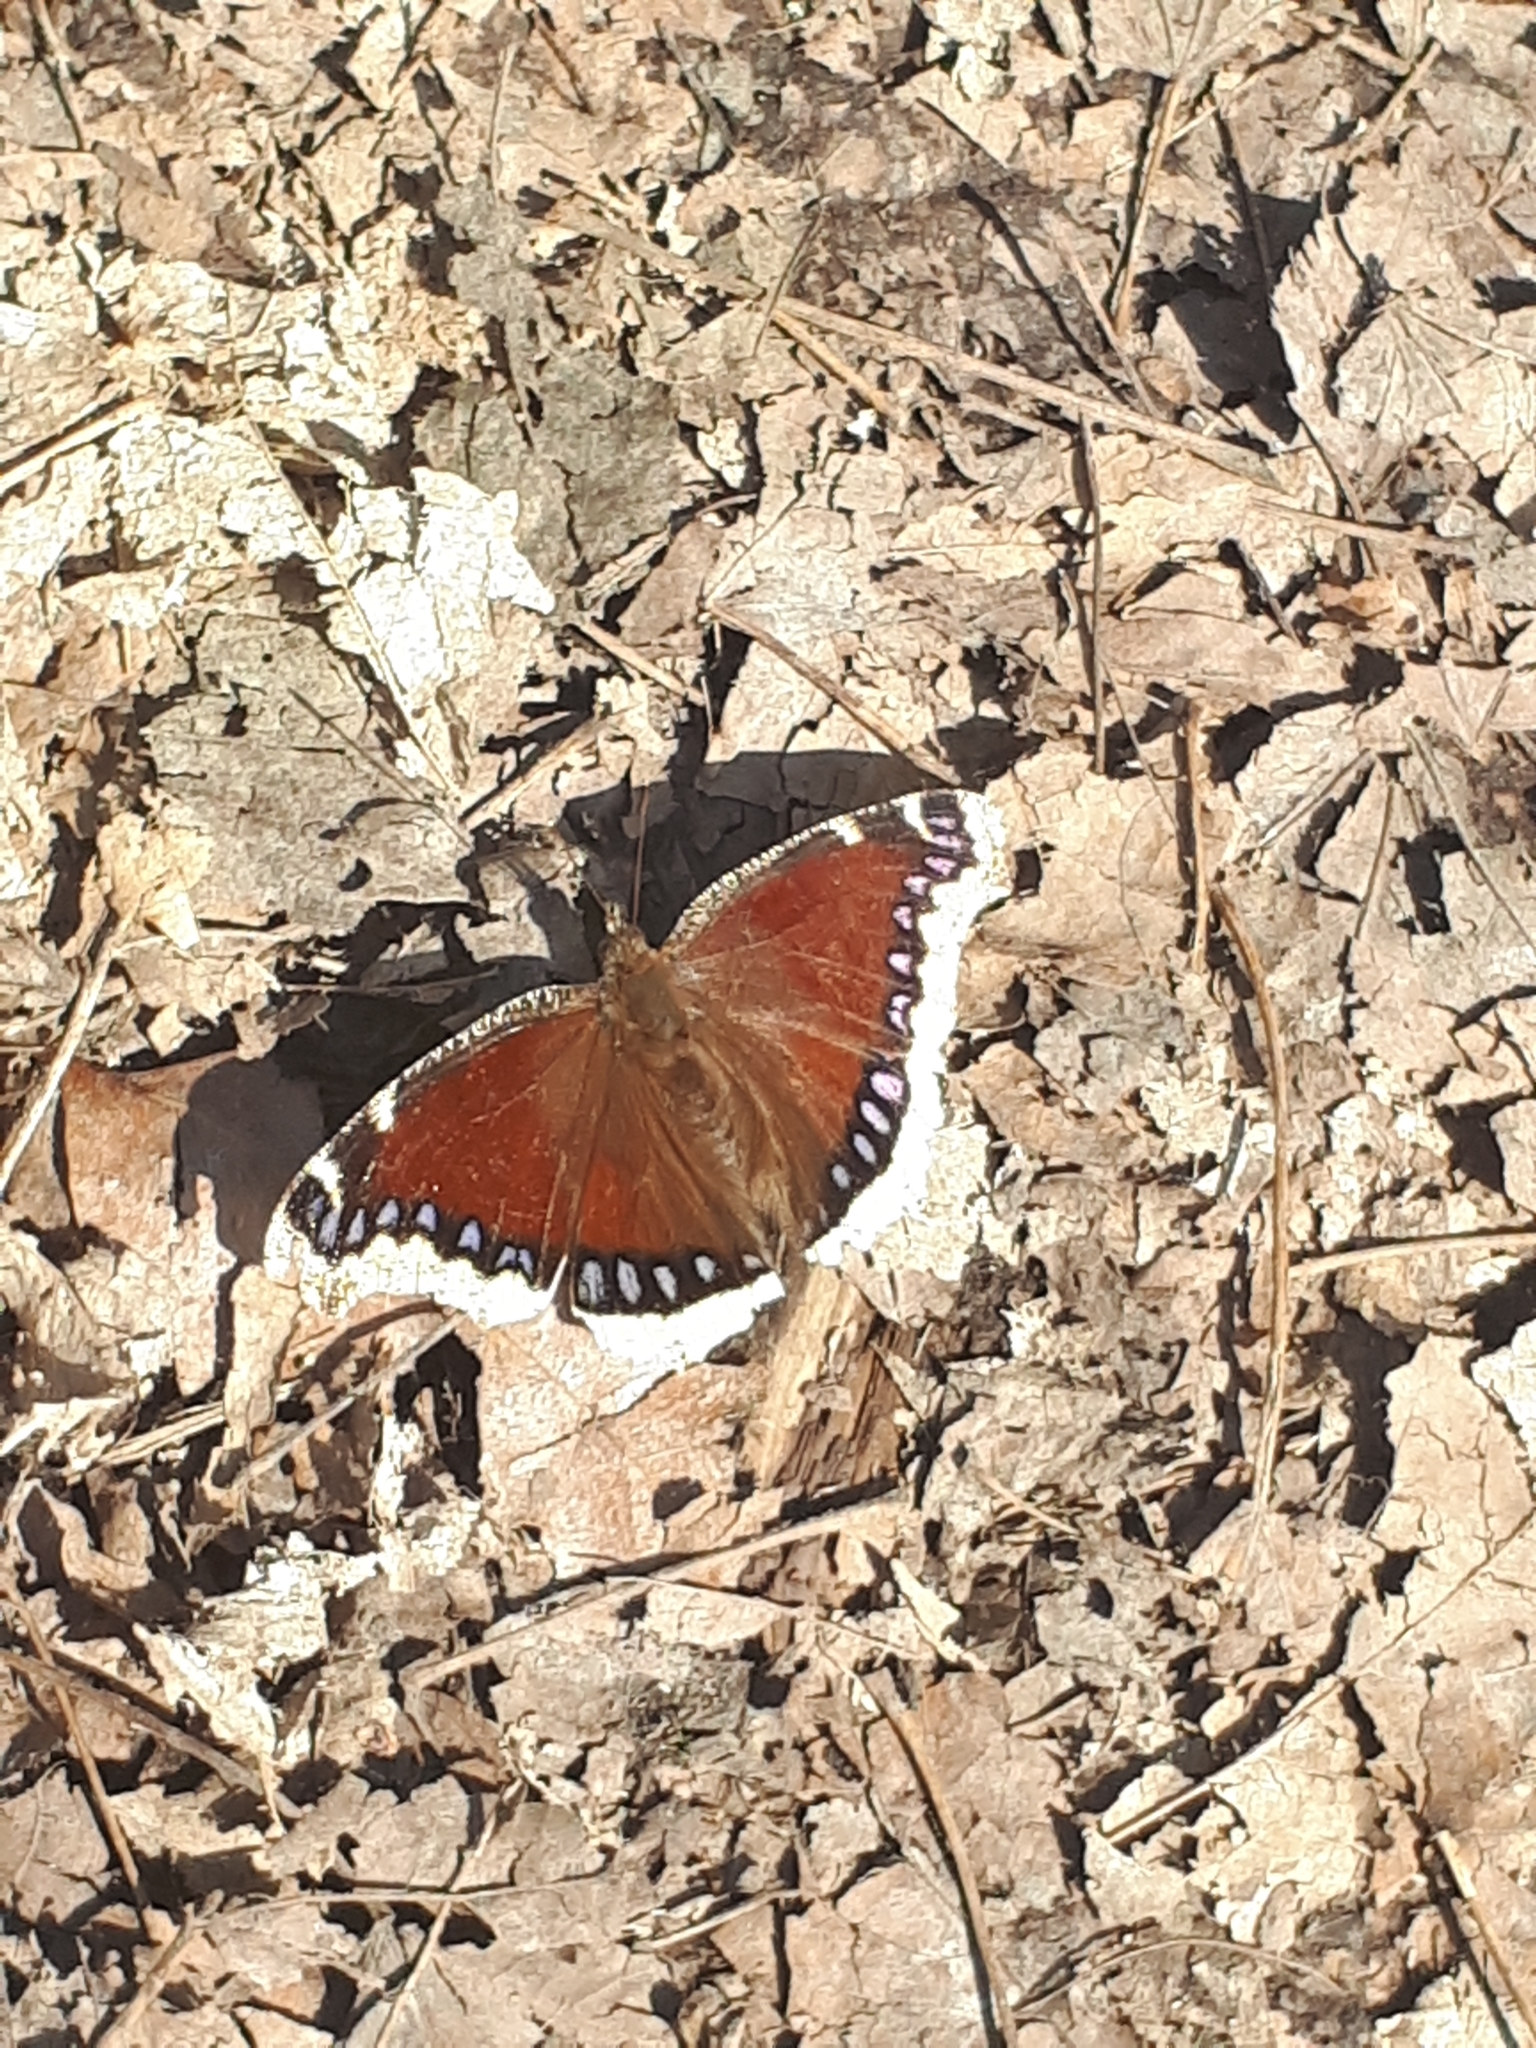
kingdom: Animalia
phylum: Arthropoda
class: Insecta
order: Lepidoptera
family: Nymphalidae
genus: Nymphalis
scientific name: Nymphalis antiopa
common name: Camberwell beauty
